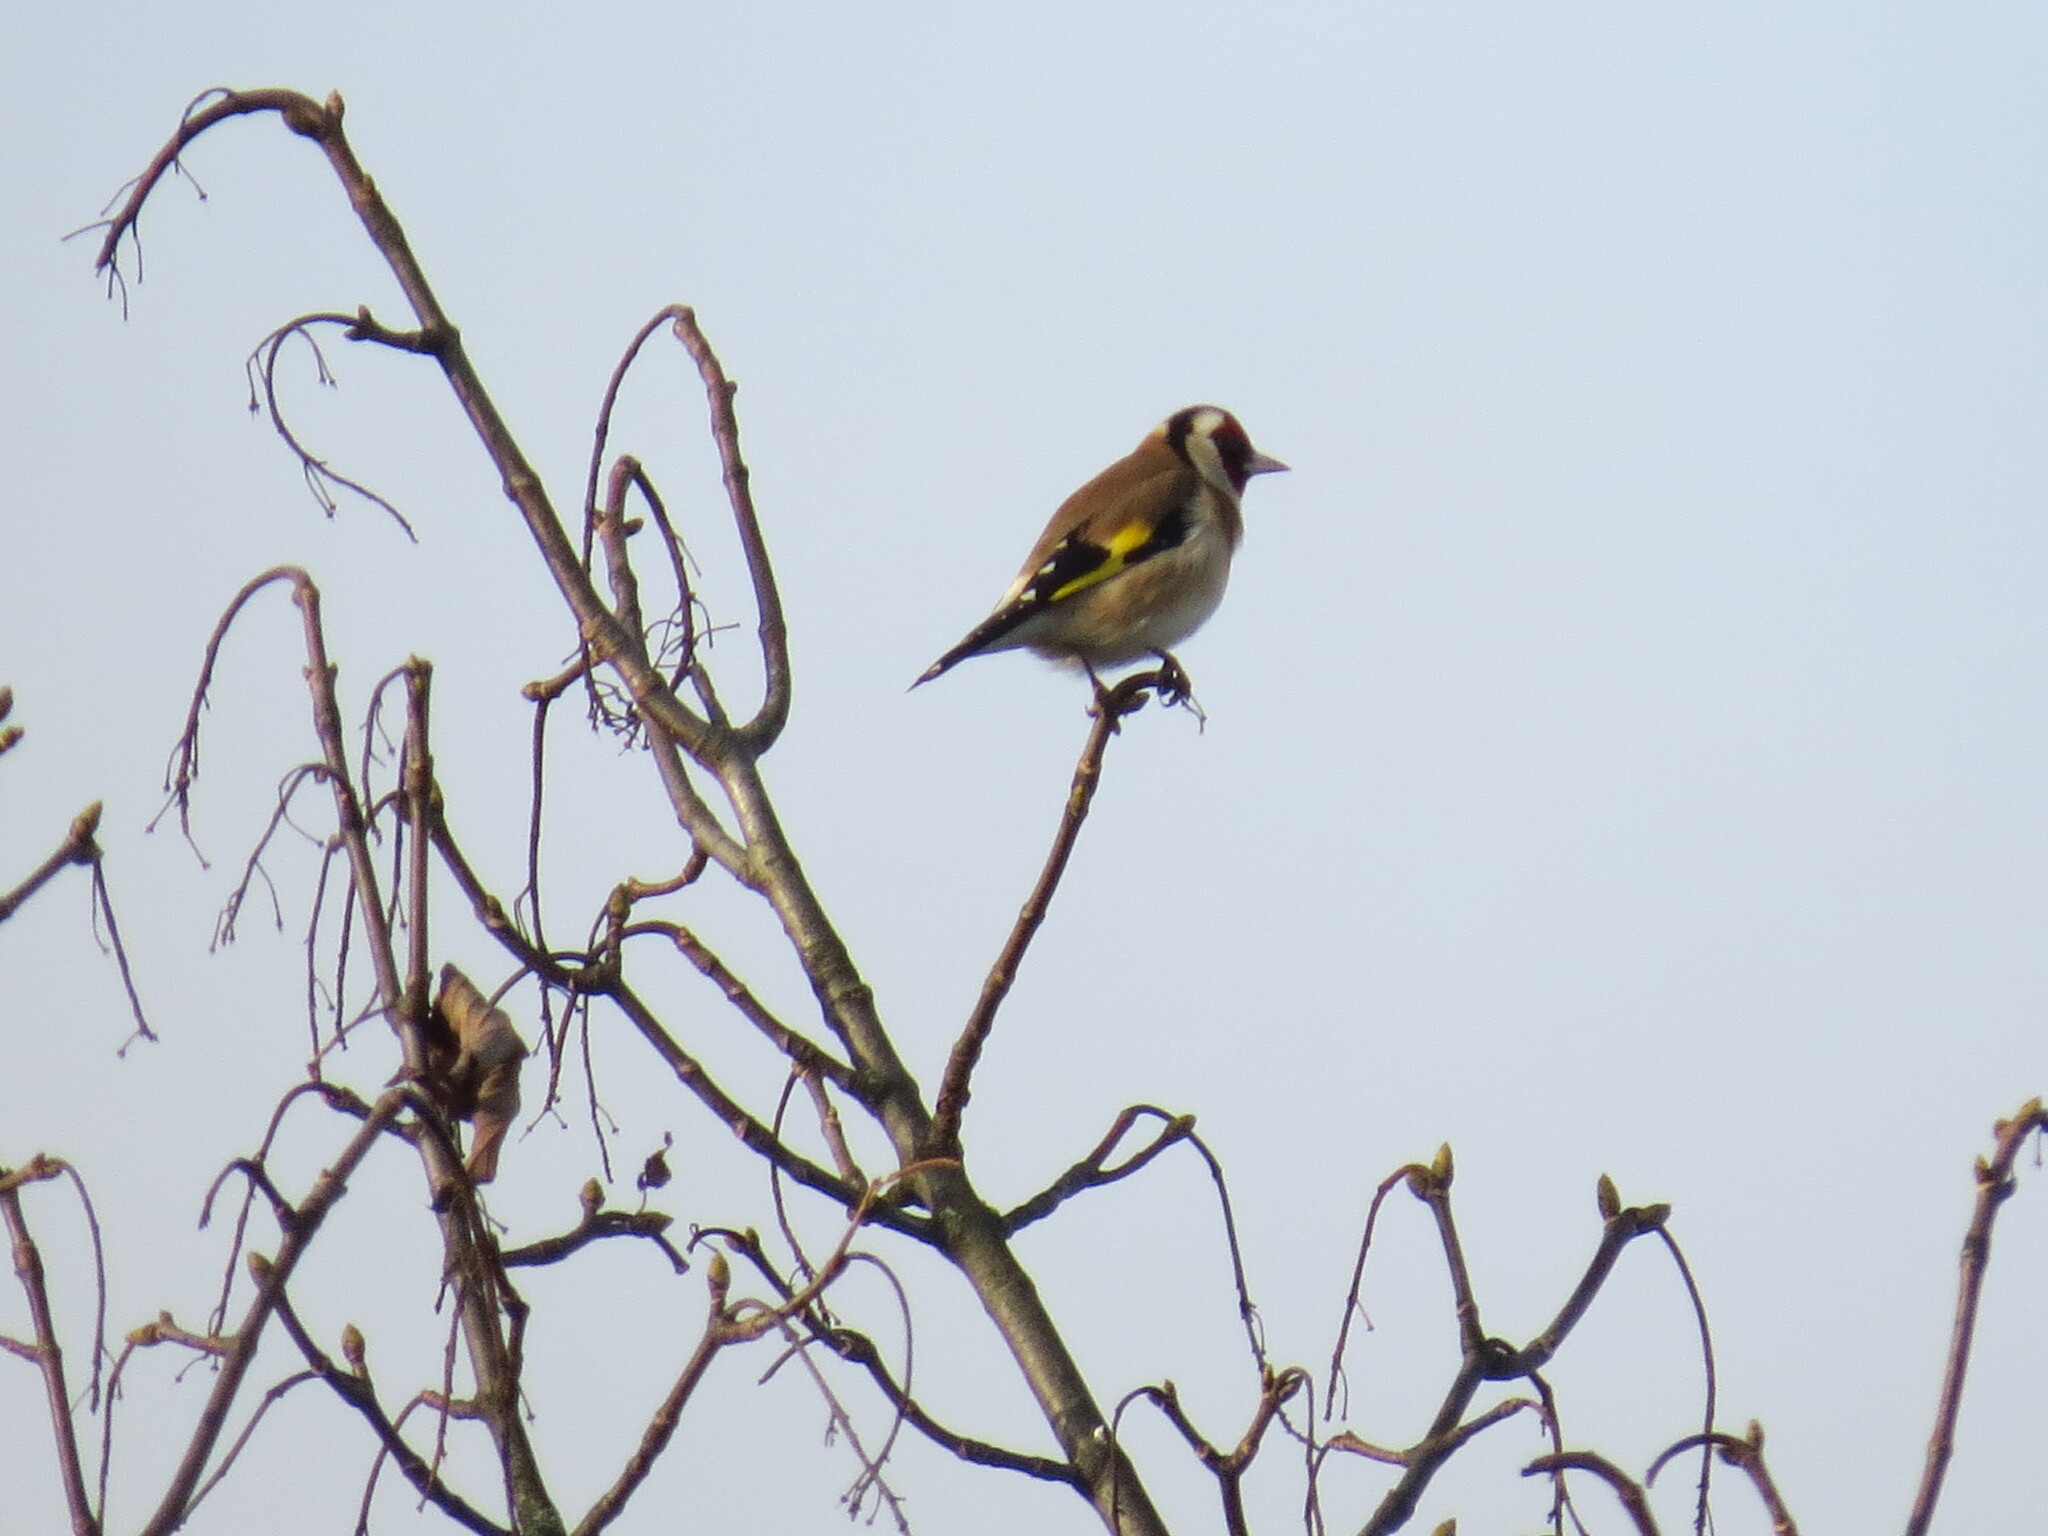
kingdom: Animalia
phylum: Chordata
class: Aves
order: Passeriformes
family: Fringillidae
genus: Carduelis
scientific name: Carduelis carduelis
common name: European goldfinch
